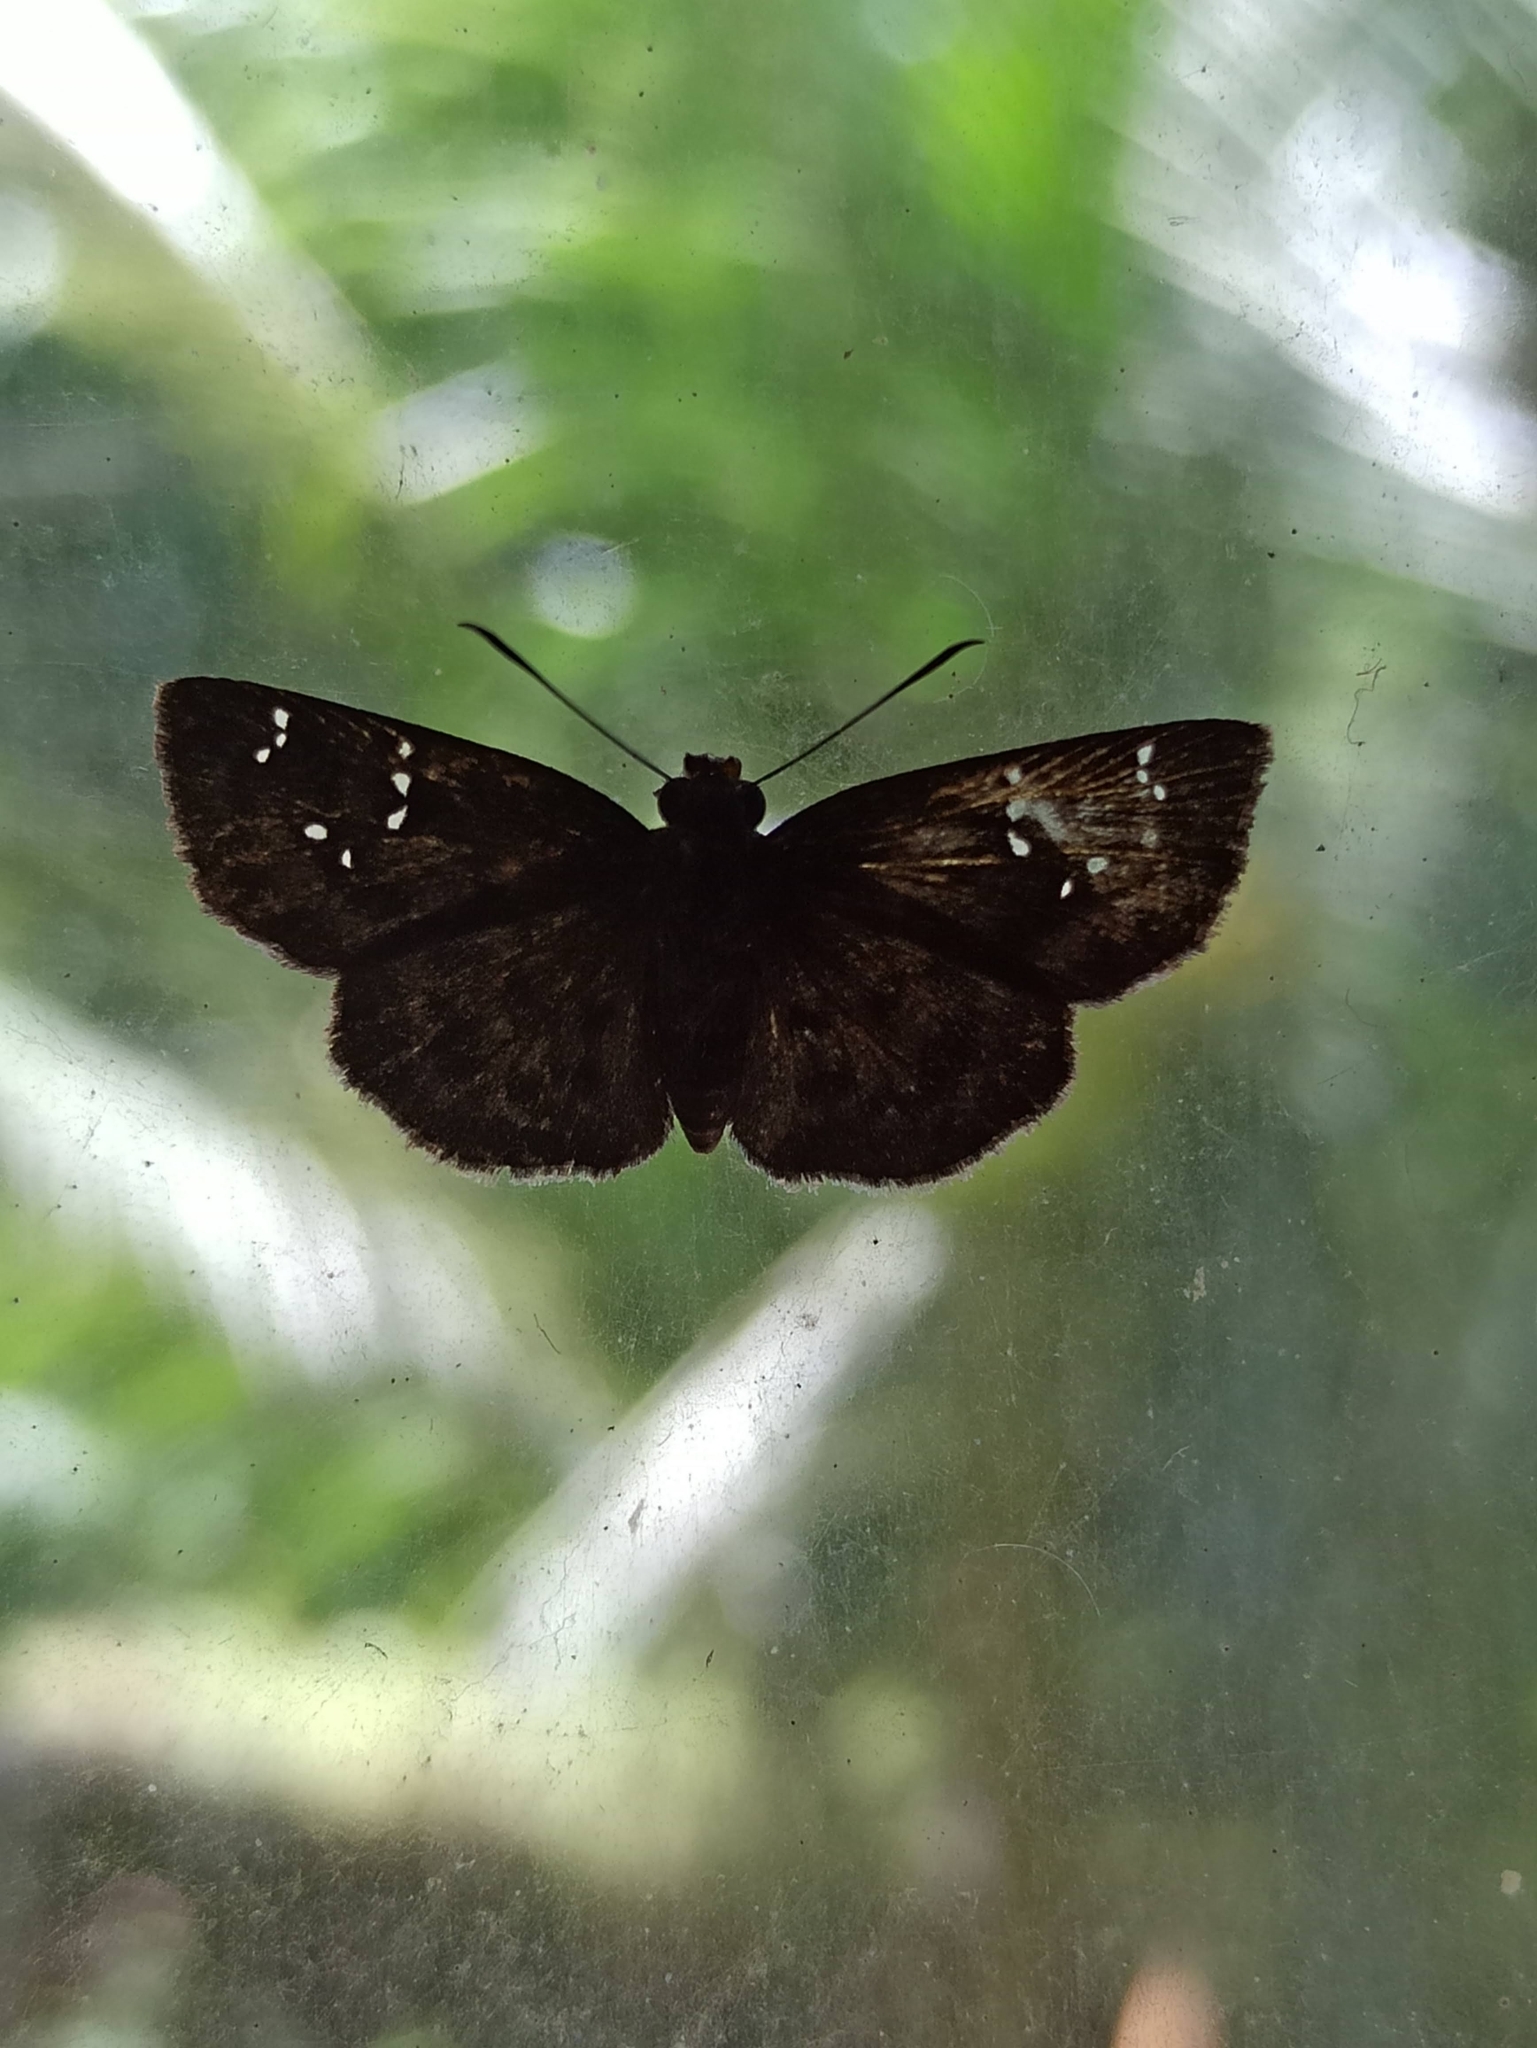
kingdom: Animalia
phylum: Arthropoda
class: Insecta
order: Lepidoptera
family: Hesperiidae
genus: Sarangesa
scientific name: Sarangesa dasahara
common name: Common small flat
